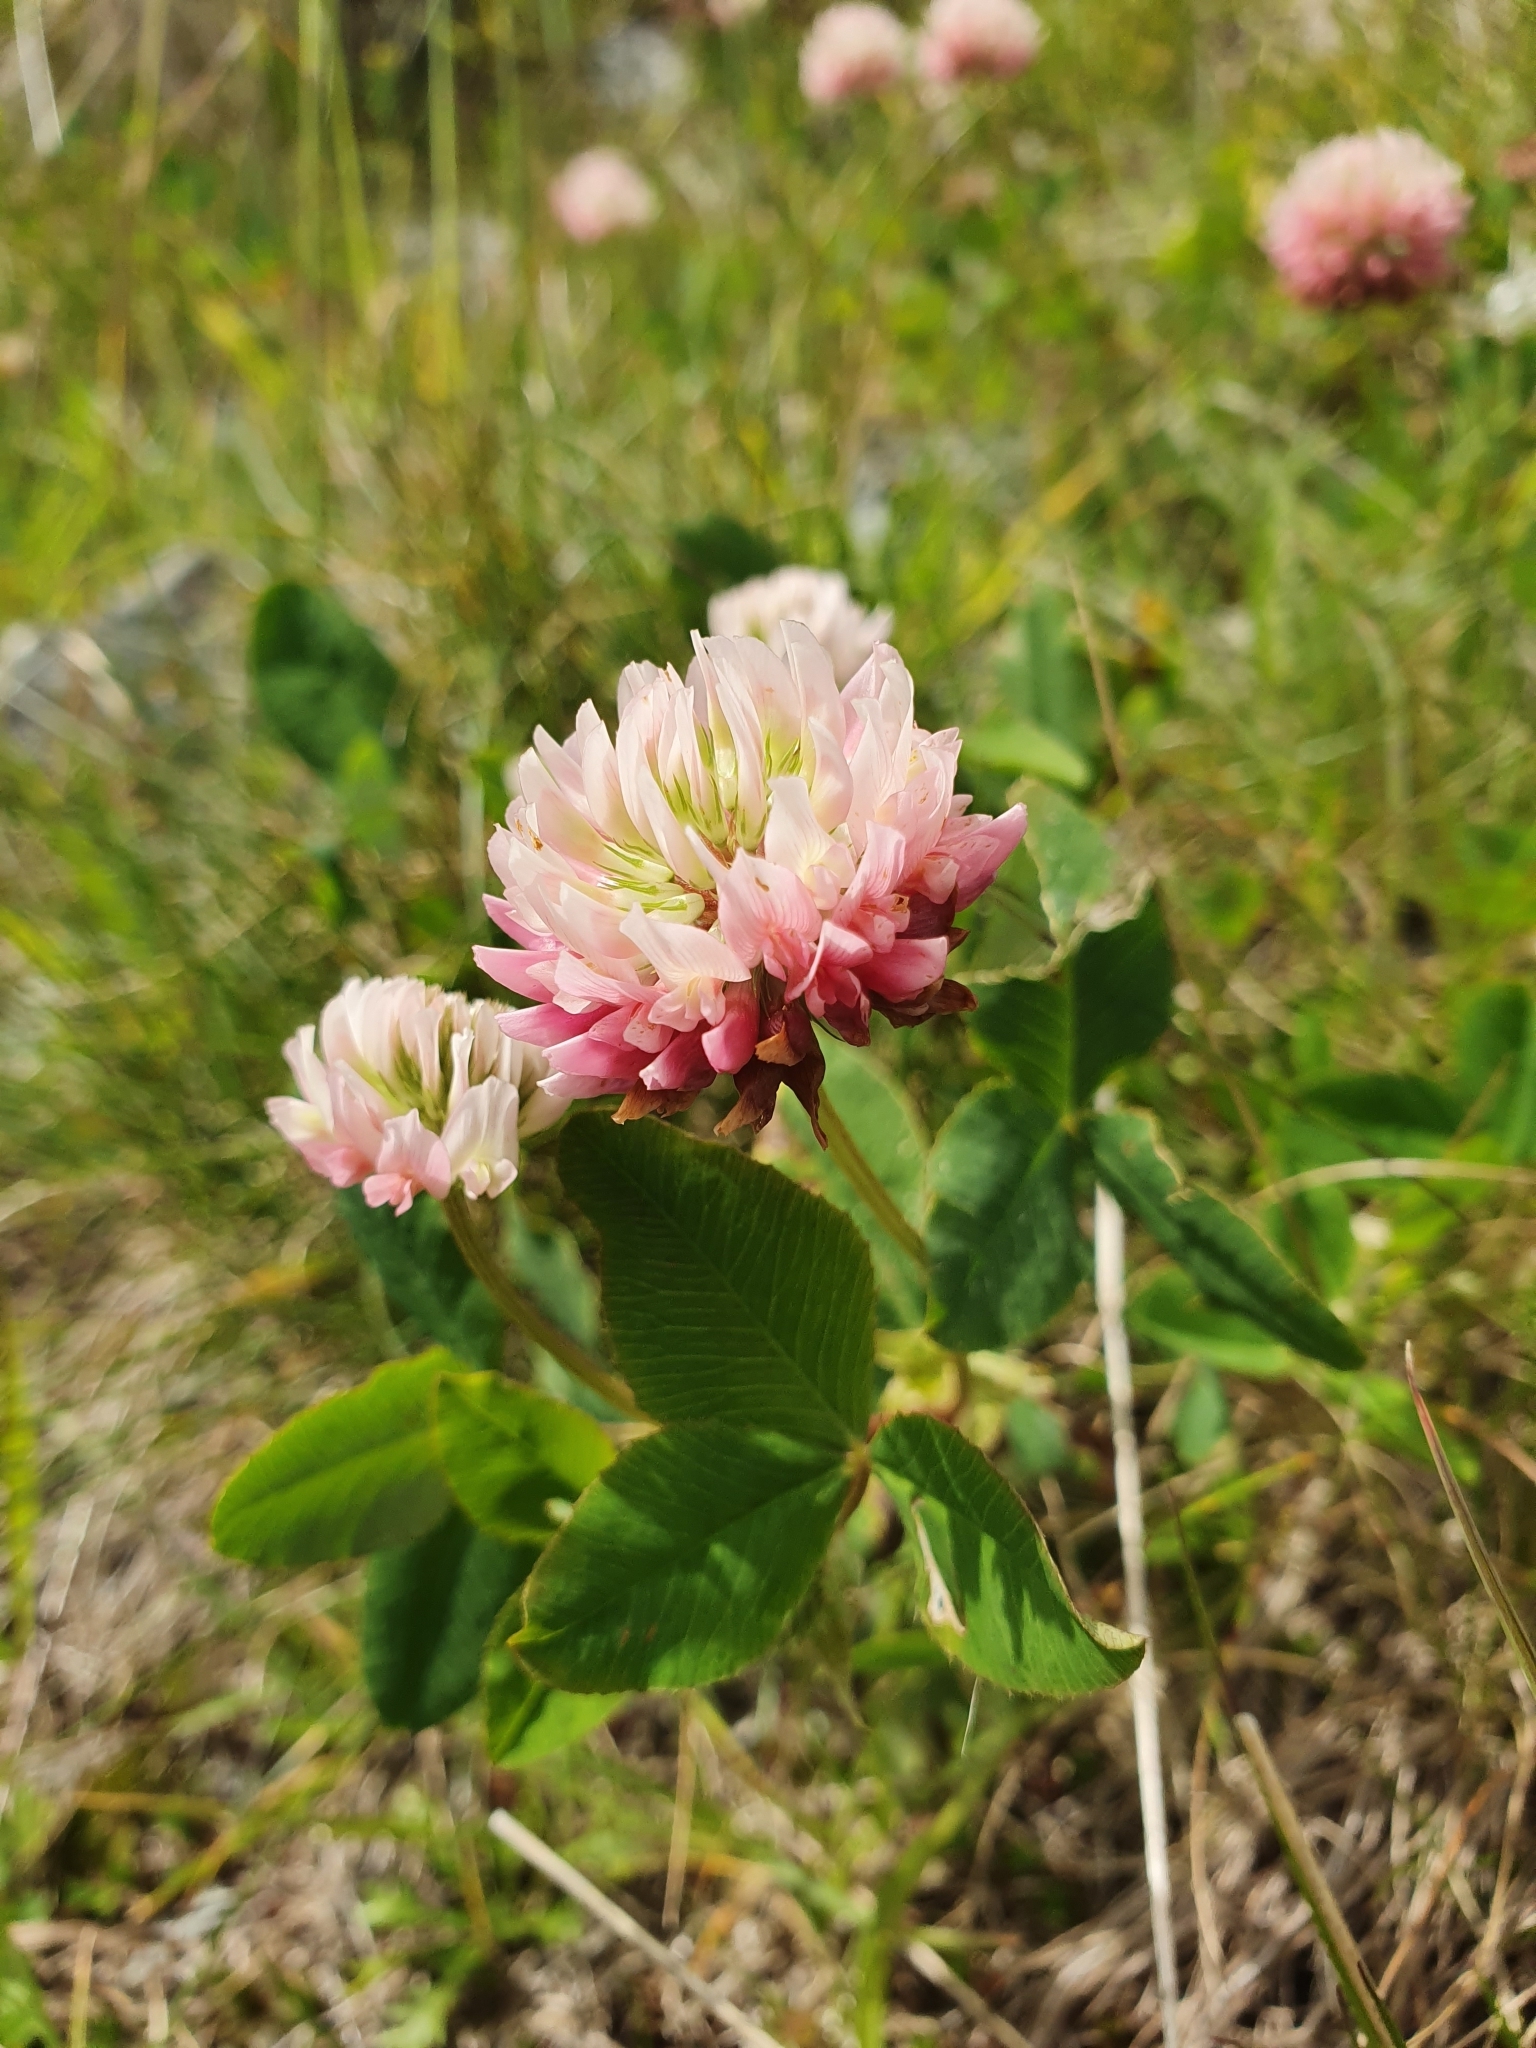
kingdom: Plantae
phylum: Tracheophyta
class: Magnoliopsida
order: Fabales
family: Fabaceae
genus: Trifolium
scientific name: Trifolium hybridum
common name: Alsike clover
